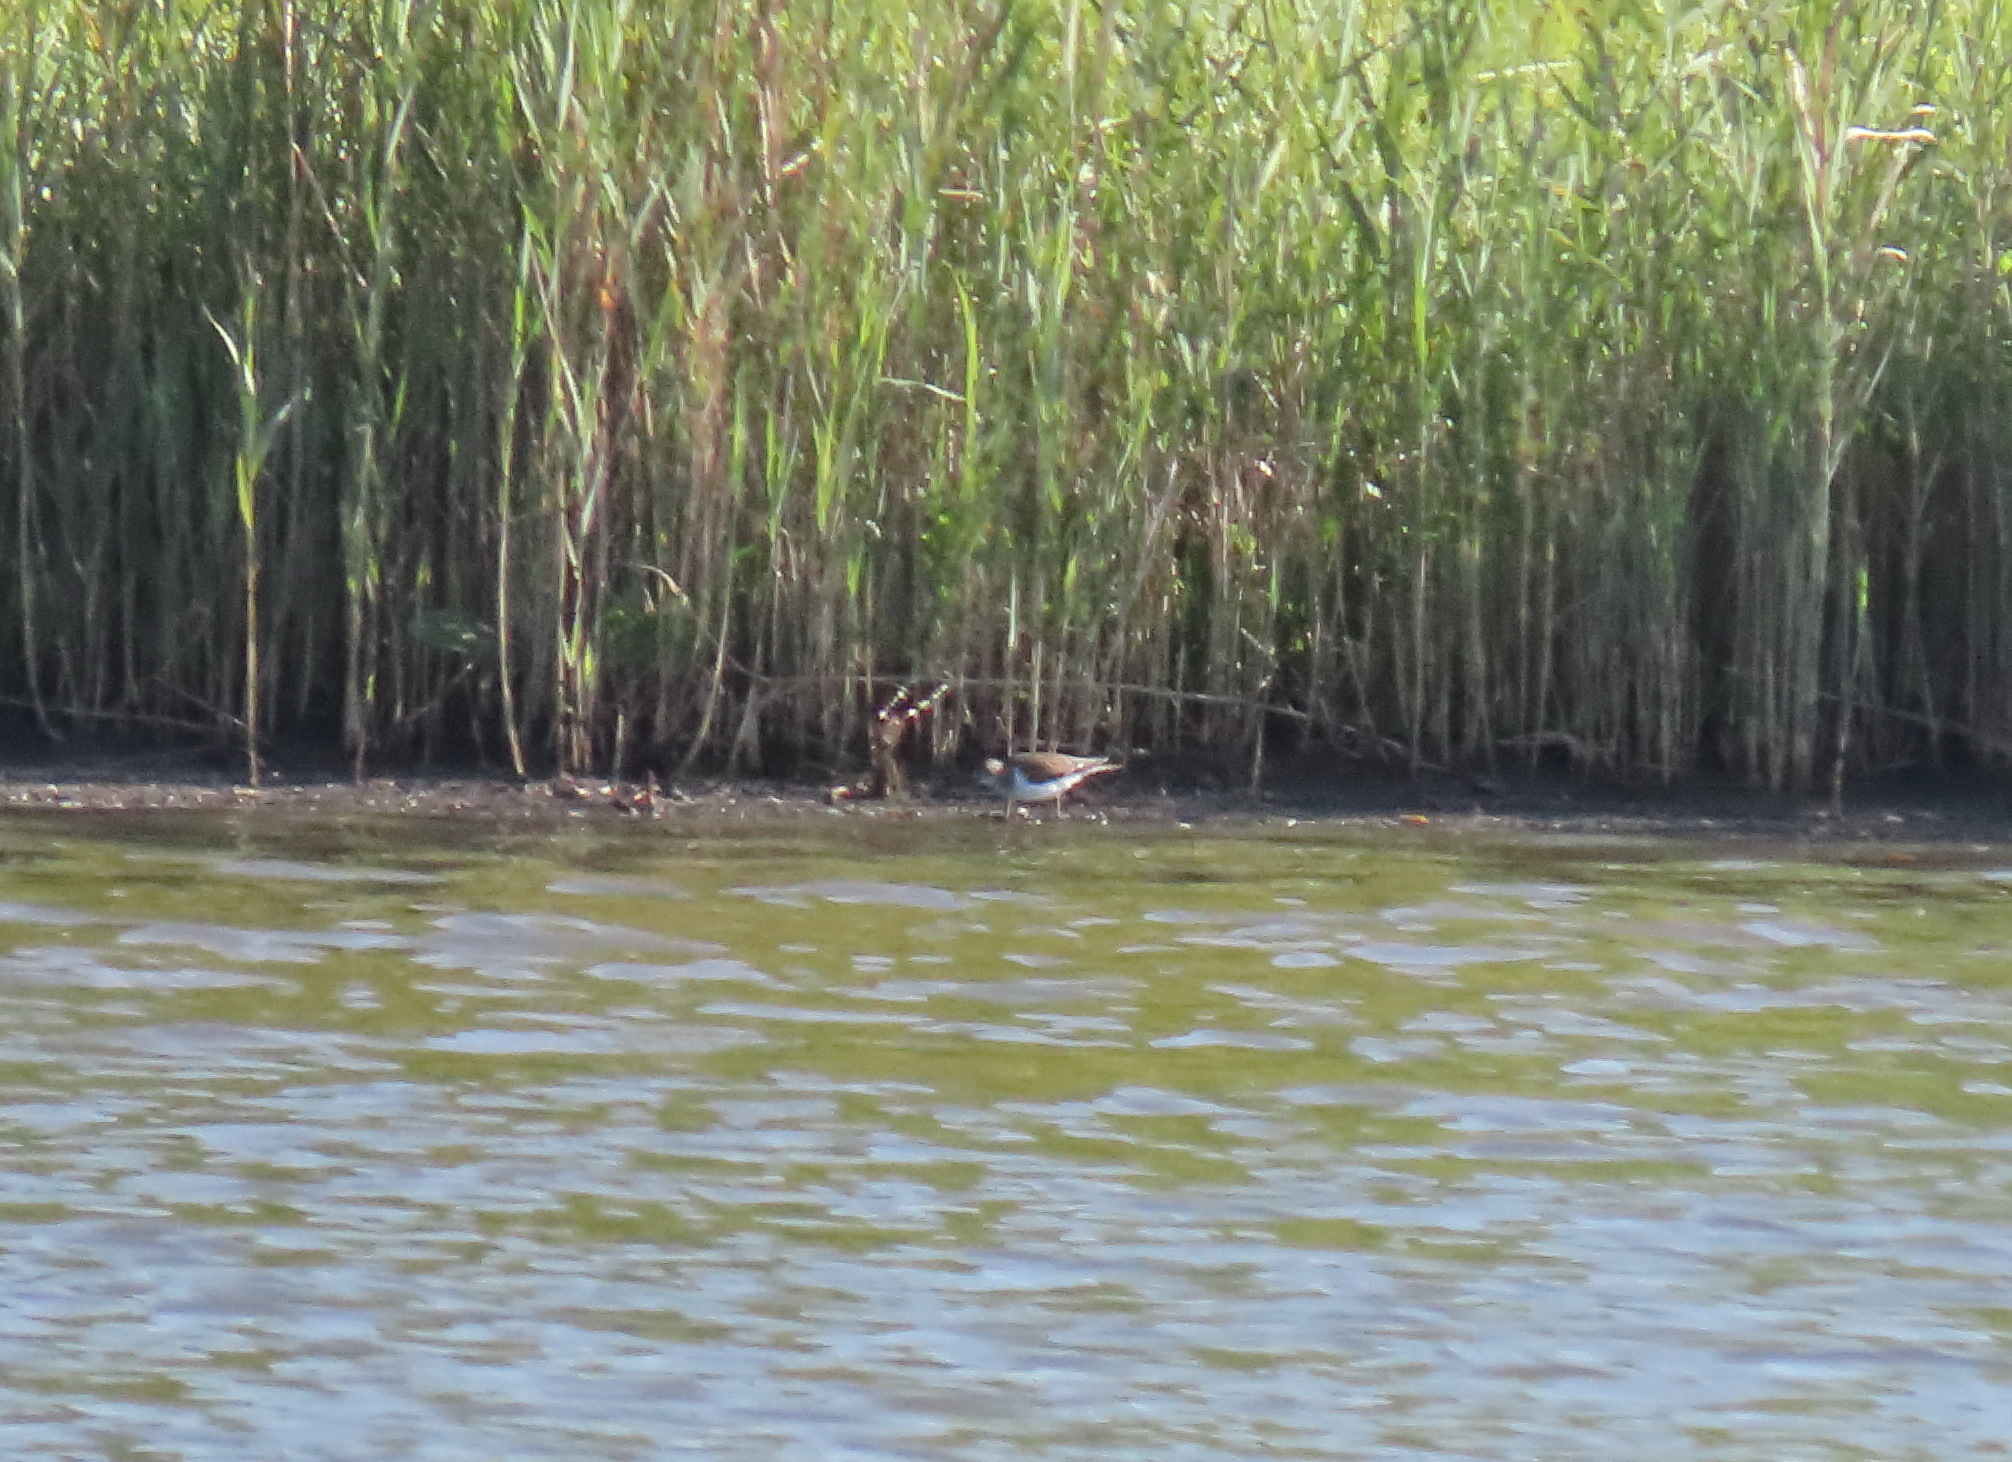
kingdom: Animalia
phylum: Chordata
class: Aves
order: Charadriiformes
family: Scolopacidae
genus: Actitis
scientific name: Actitis hypoleucos
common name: Common sandpiper
